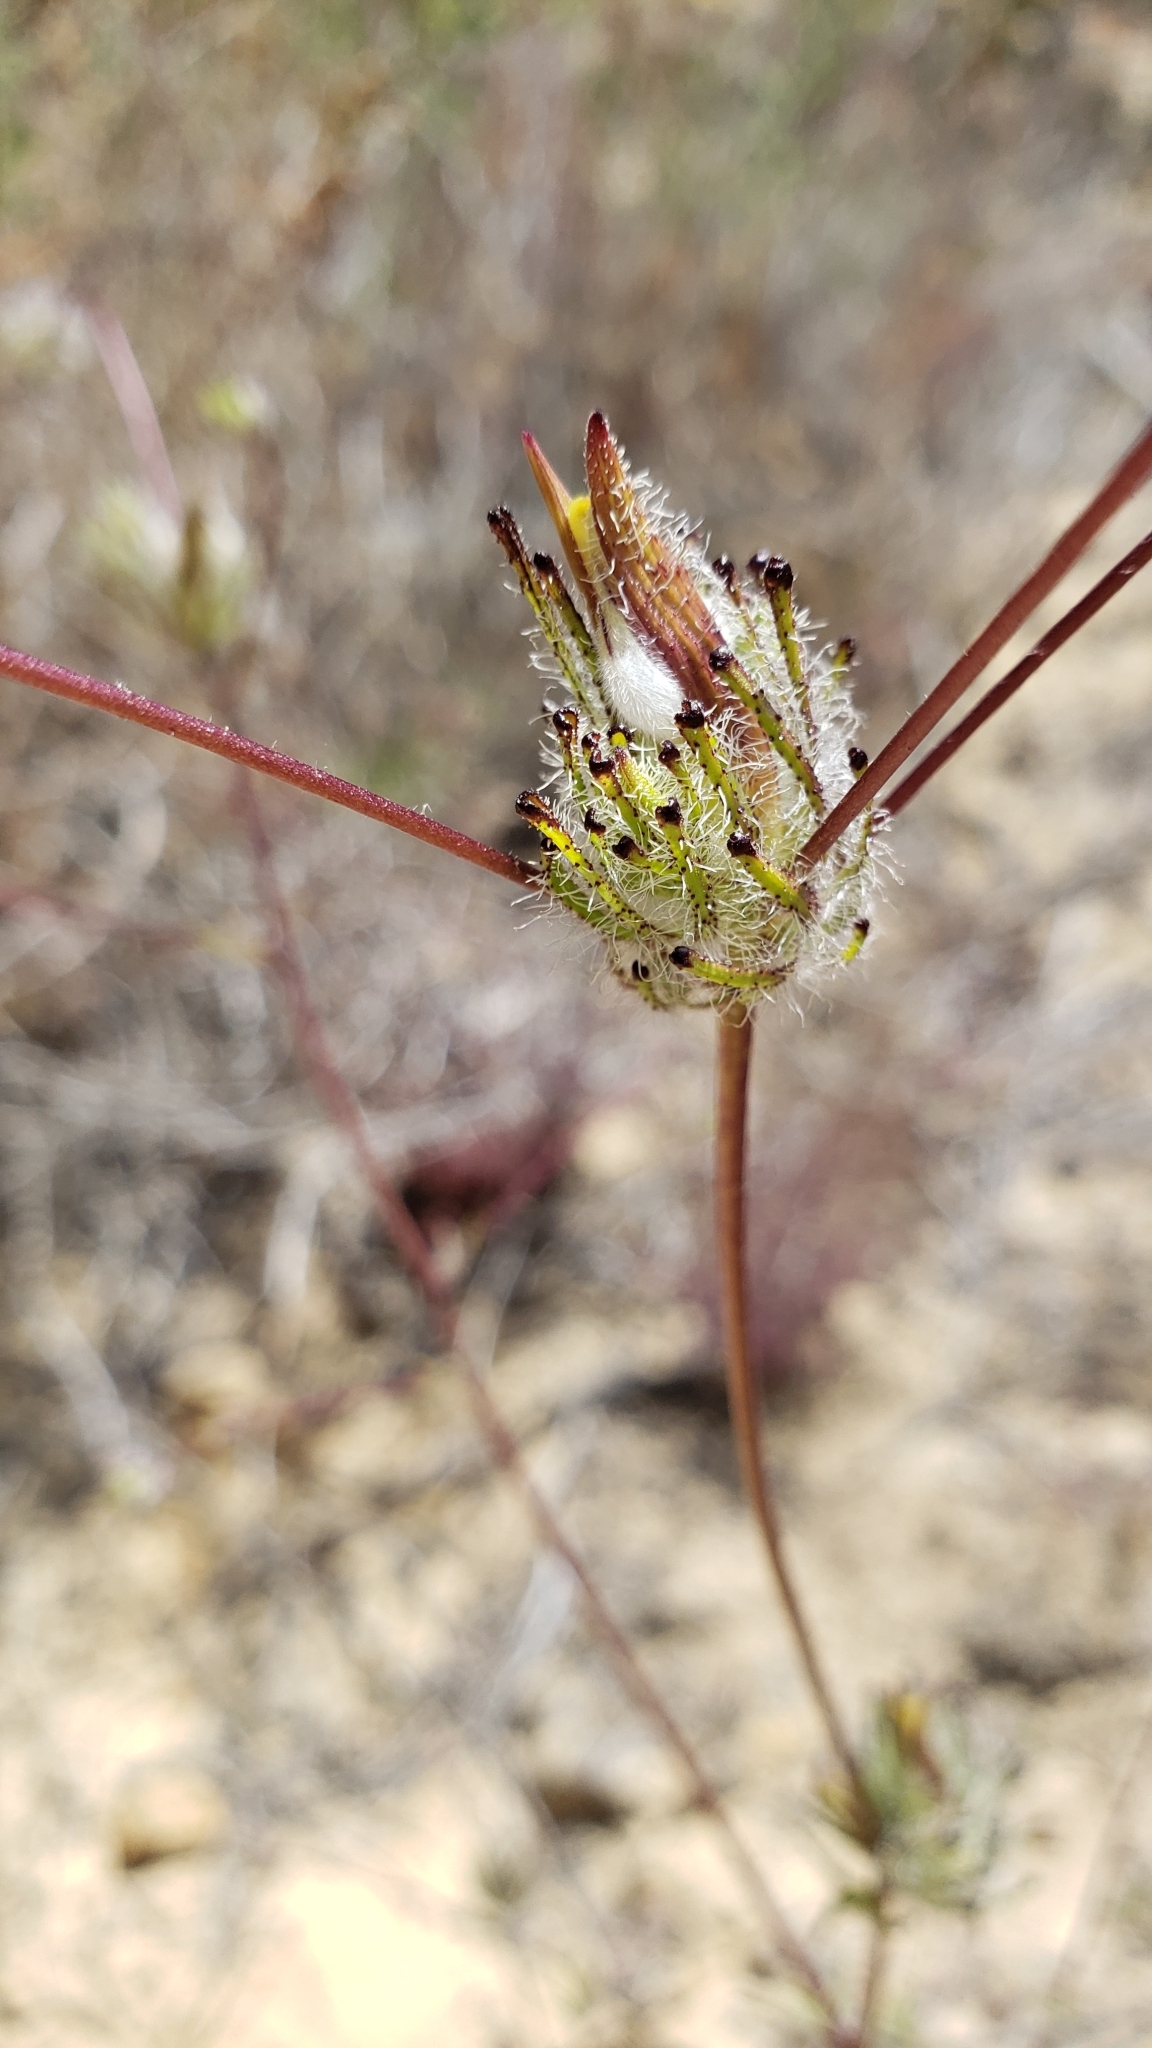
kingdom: Plantae
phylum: Tracheophyta
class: Magnoliopsida
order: Lamiales
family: Orobanchaceae
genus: Cordylanthus
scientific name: Cordylanthus rigidus
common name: Stiff-branch bird's-beak
